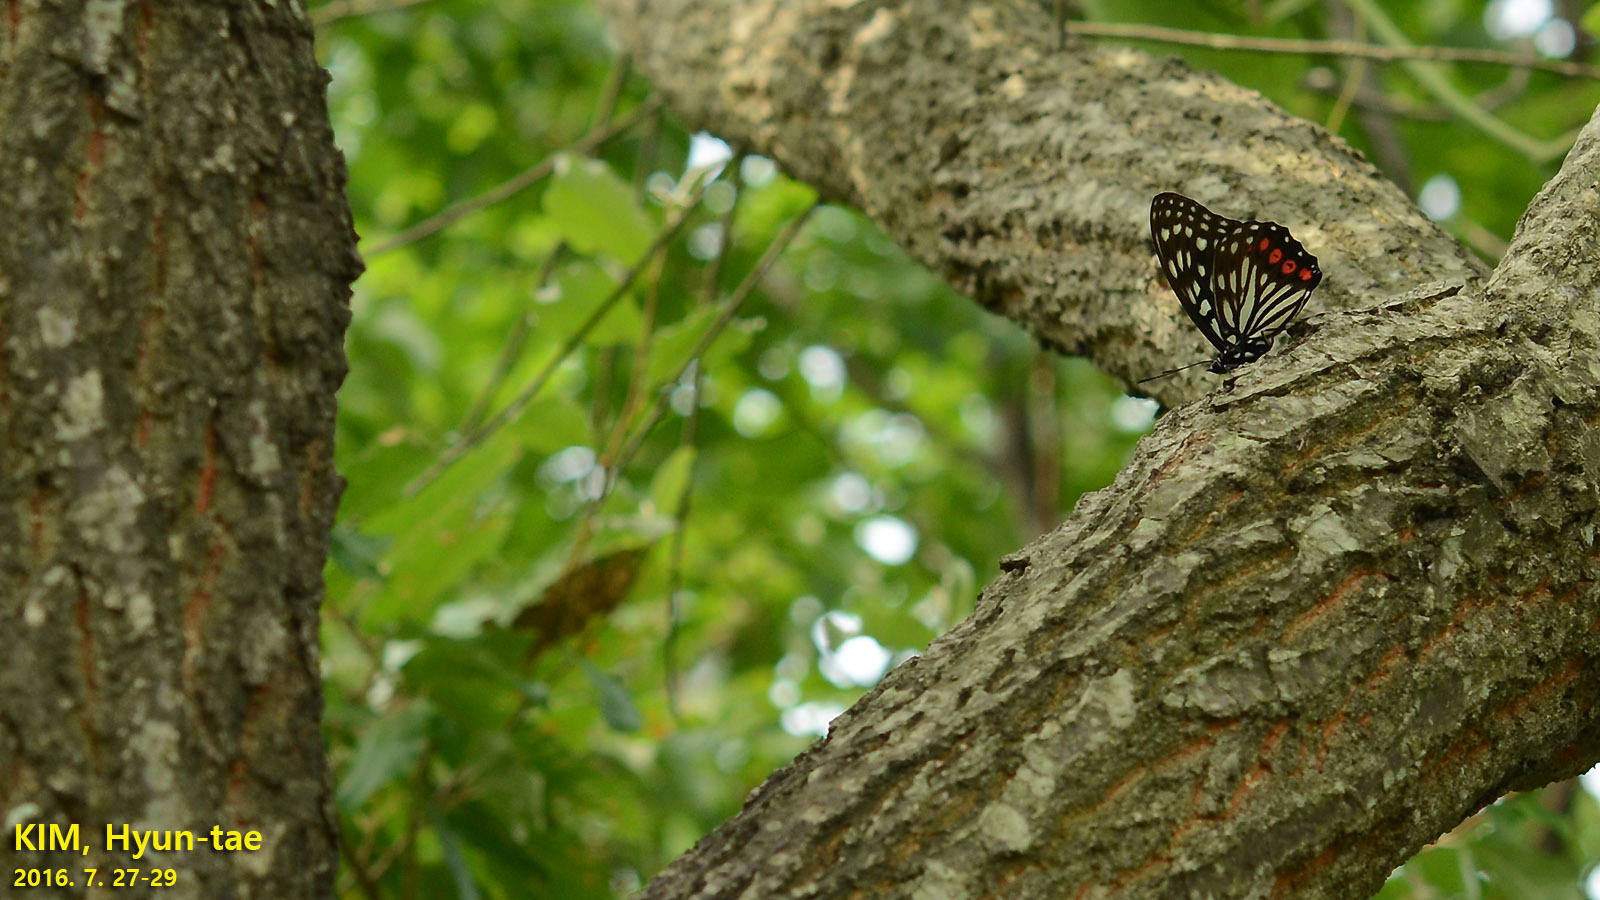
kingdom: Animalia
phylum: Arthropoda
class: Insecta
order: Lepidoptera
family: Nymphalidae
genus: Hestina
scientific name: Hestina assimilis
